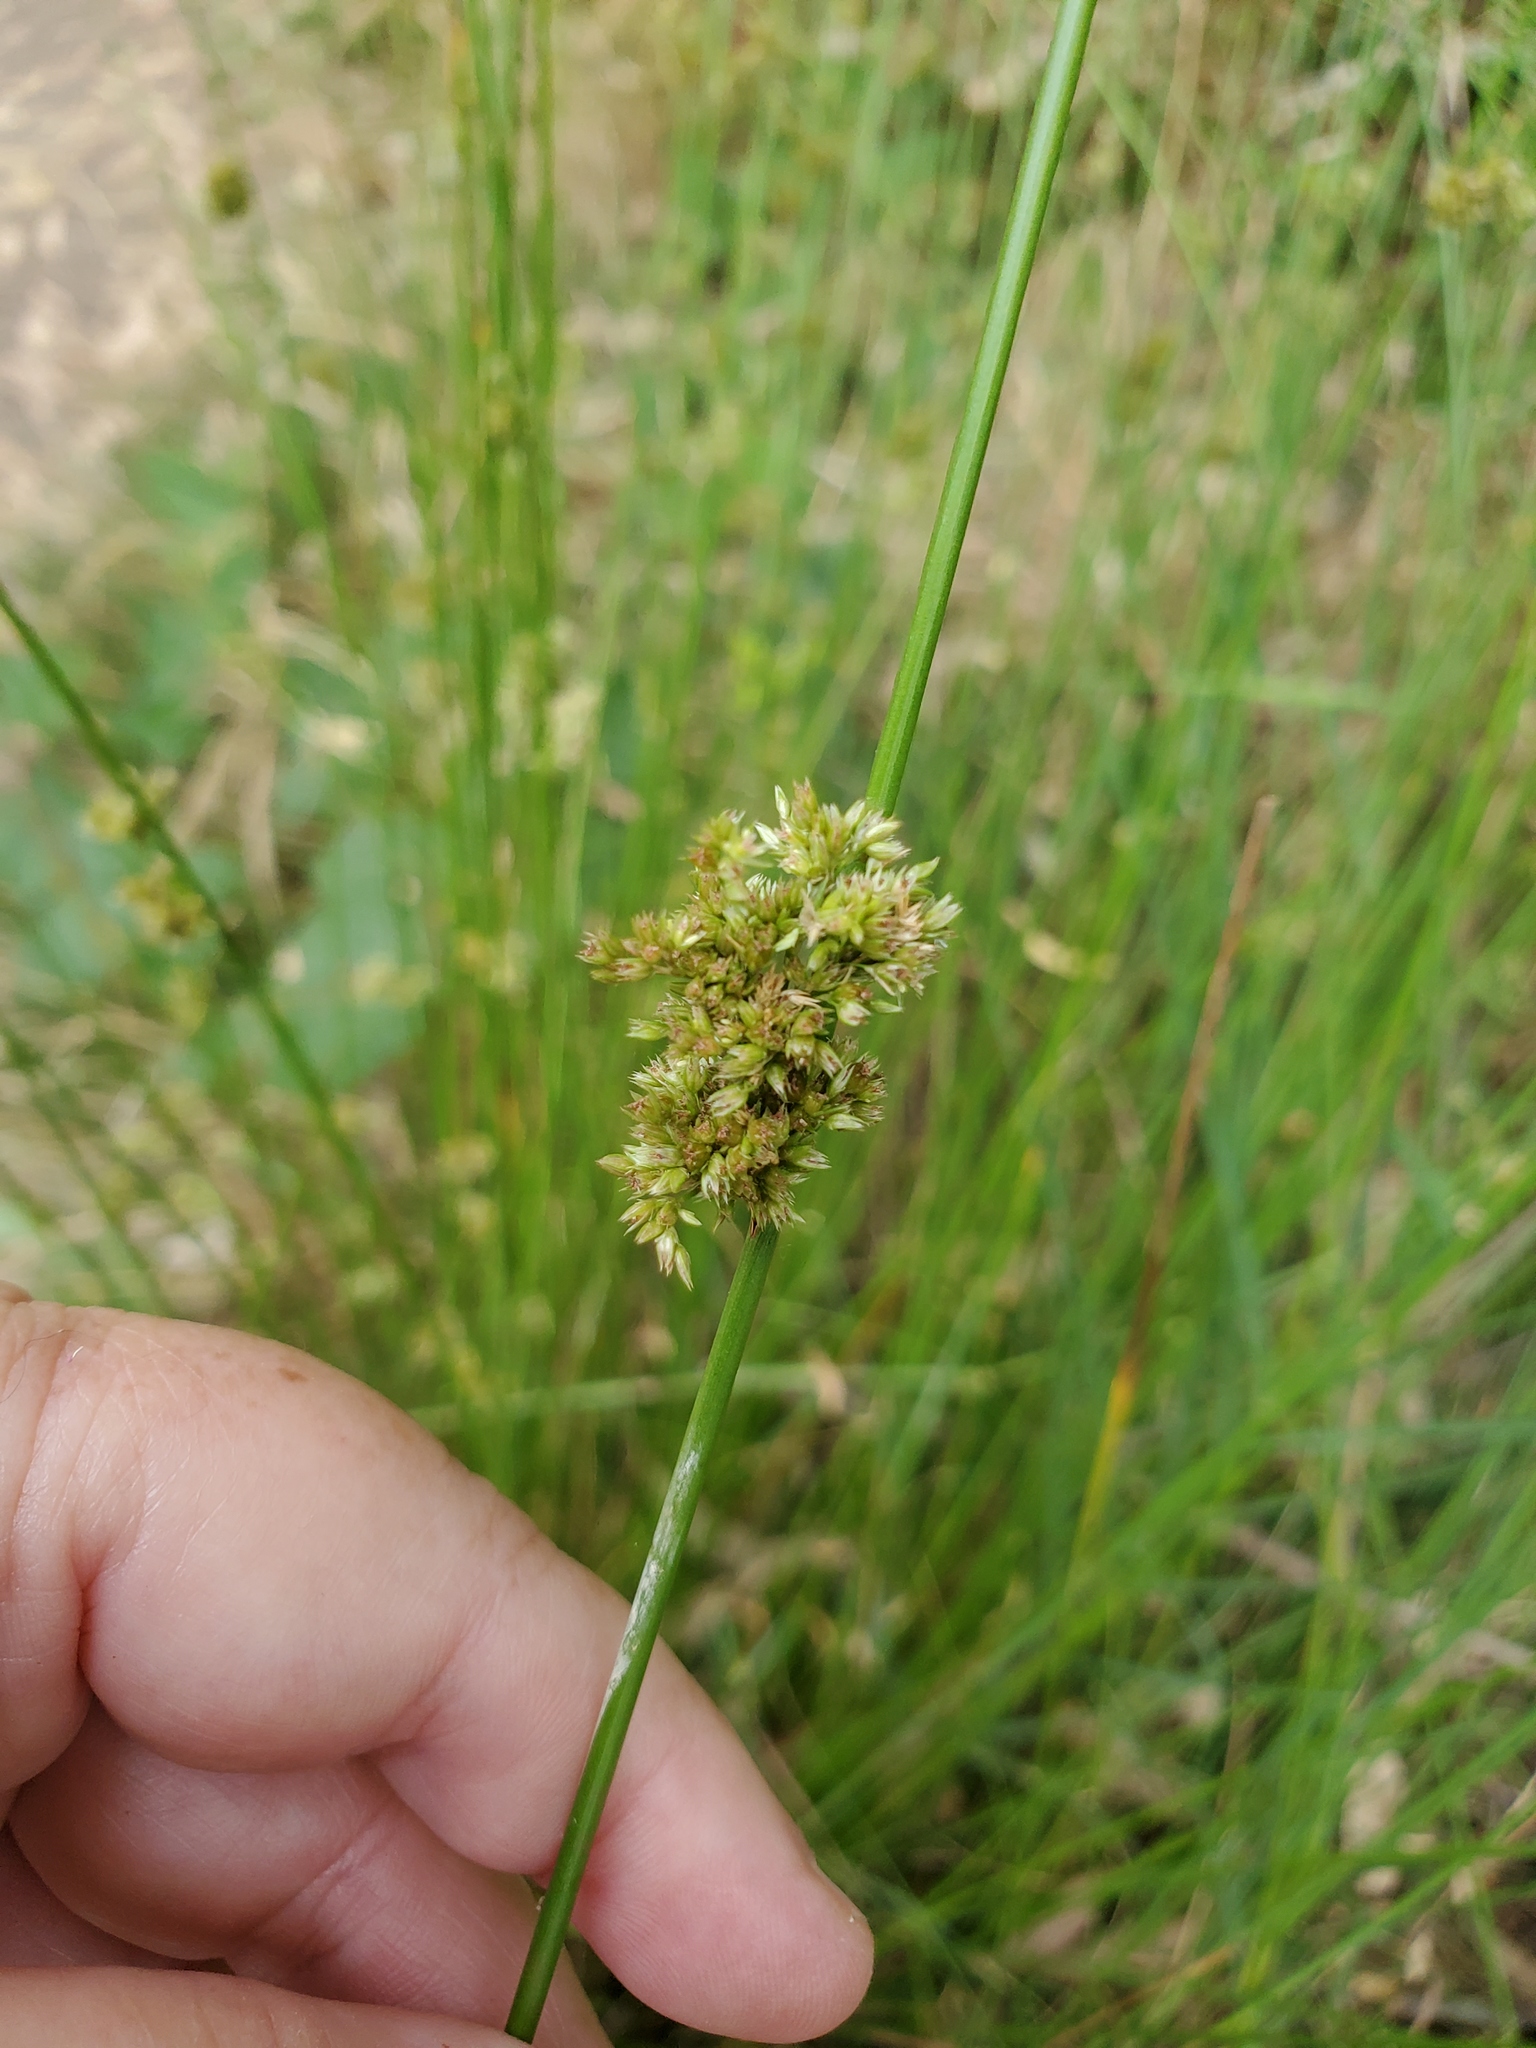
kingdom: Plantae
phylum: Tracheophyta
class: Liliopsida
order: Poales
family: Juncaceae
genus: Juncus
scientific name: Juncus effusus
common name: Soft rush
